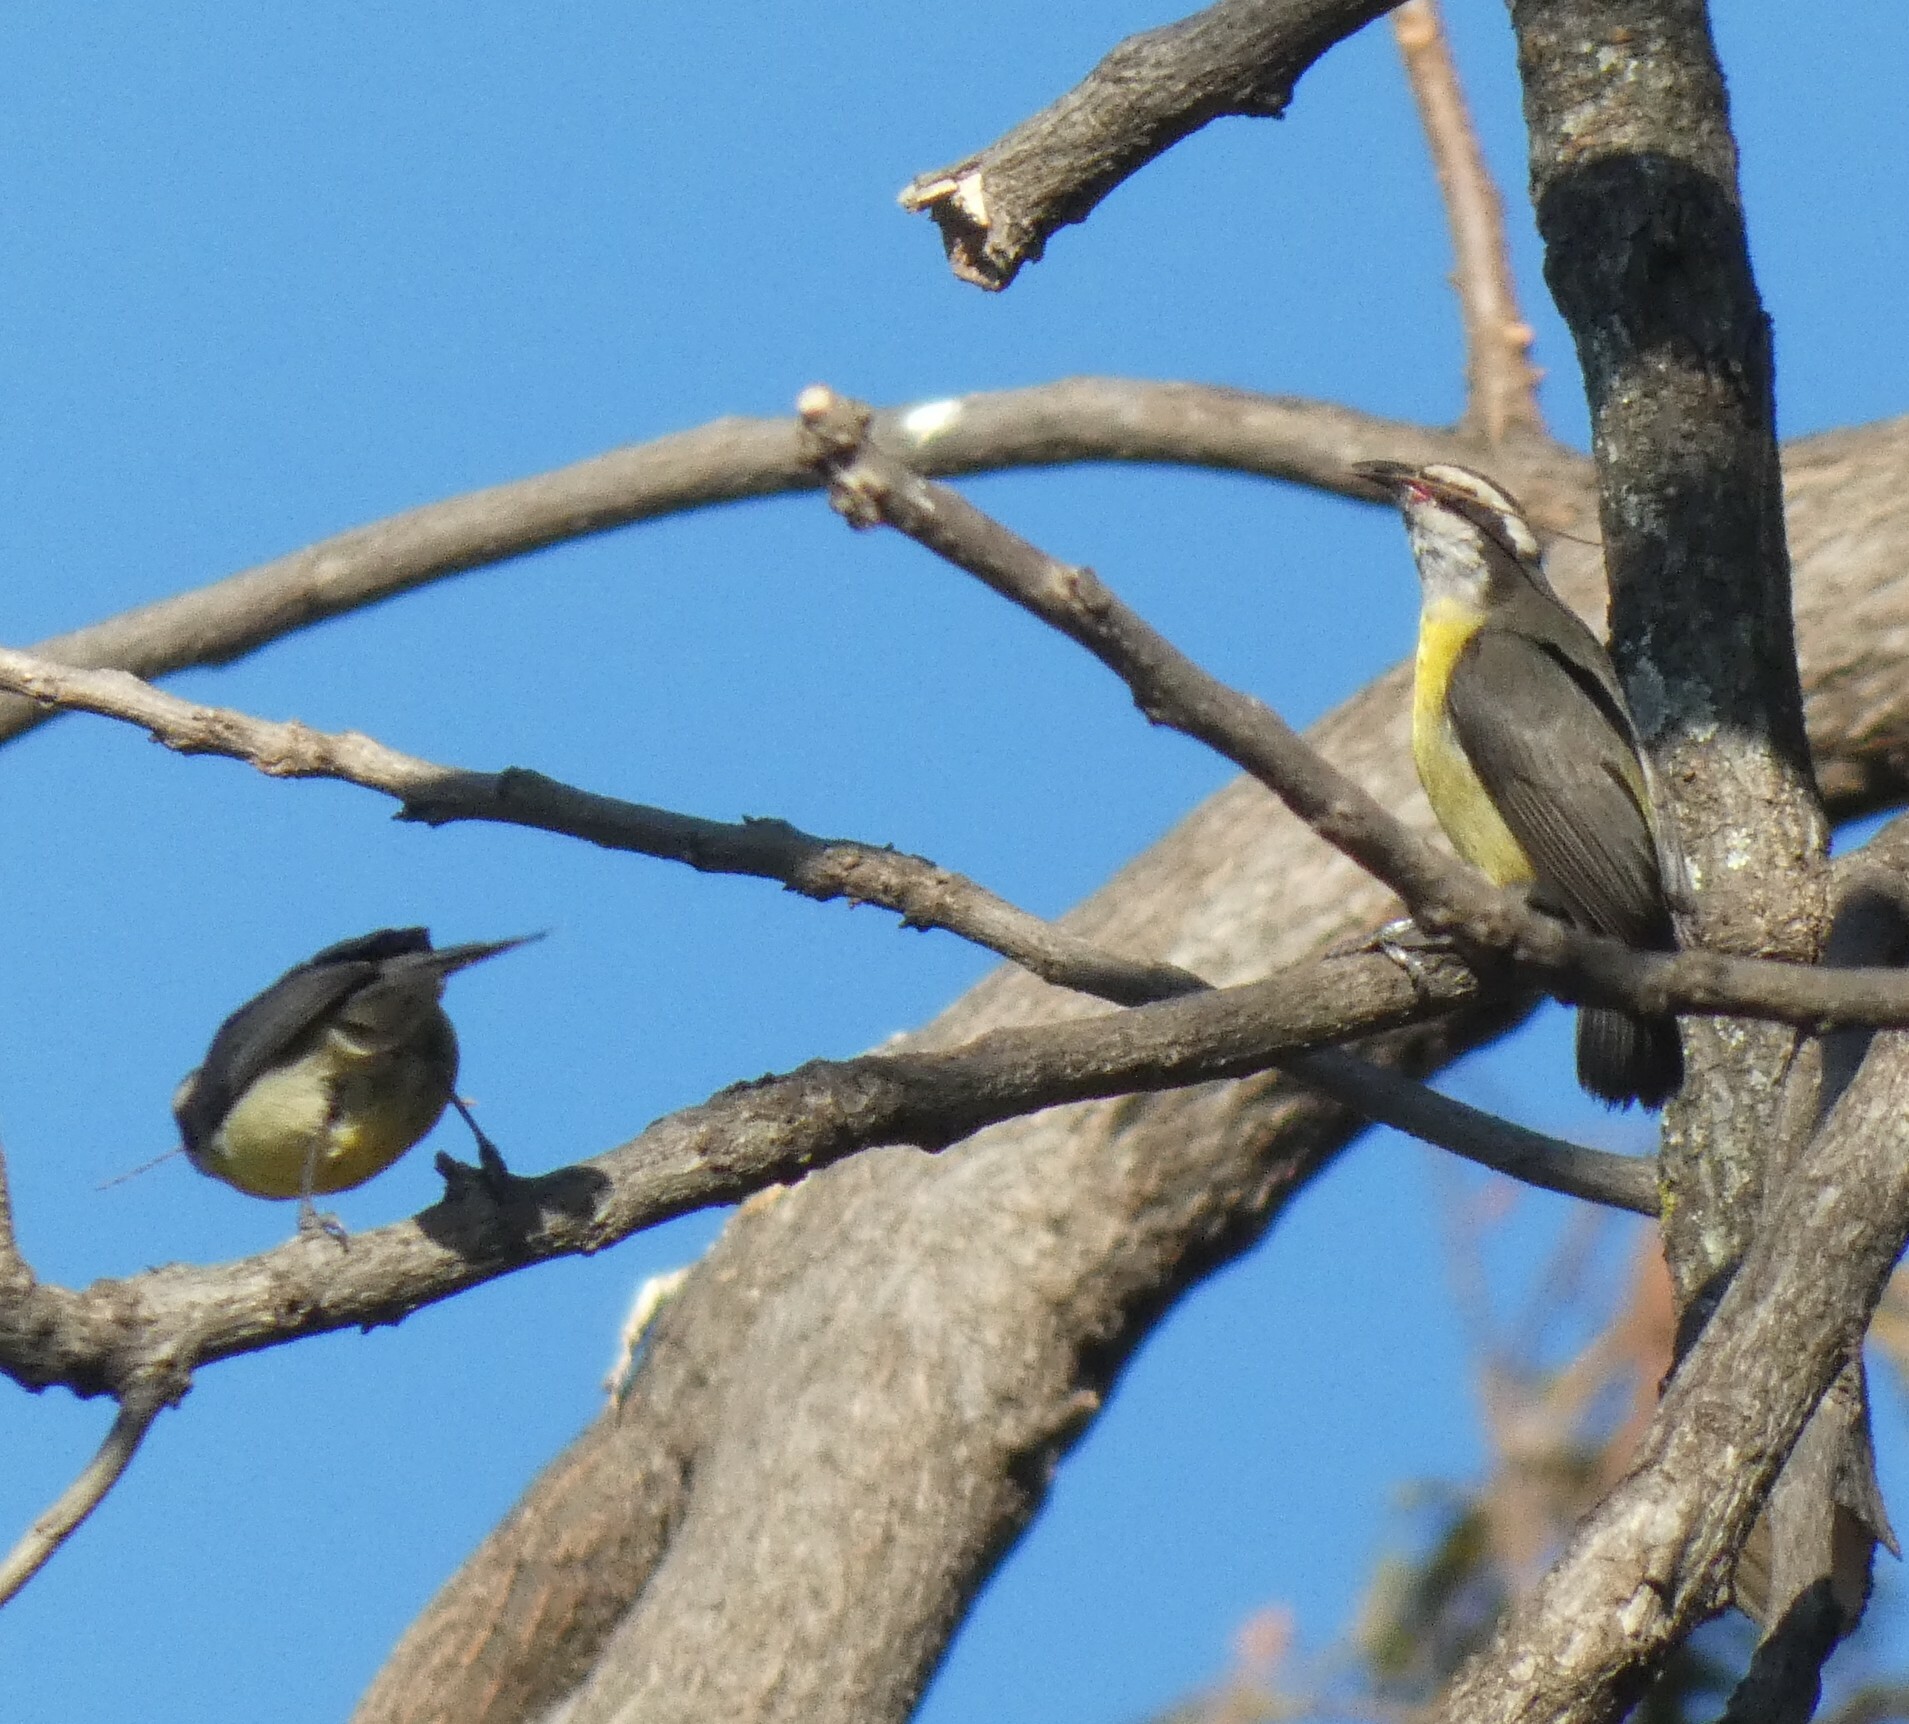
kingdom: Animalia
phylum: Chordata
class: Aves
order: Passeriformes
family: Thraupidae
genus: Coereba
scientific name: Coereba flaveola
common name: Bananaquit
